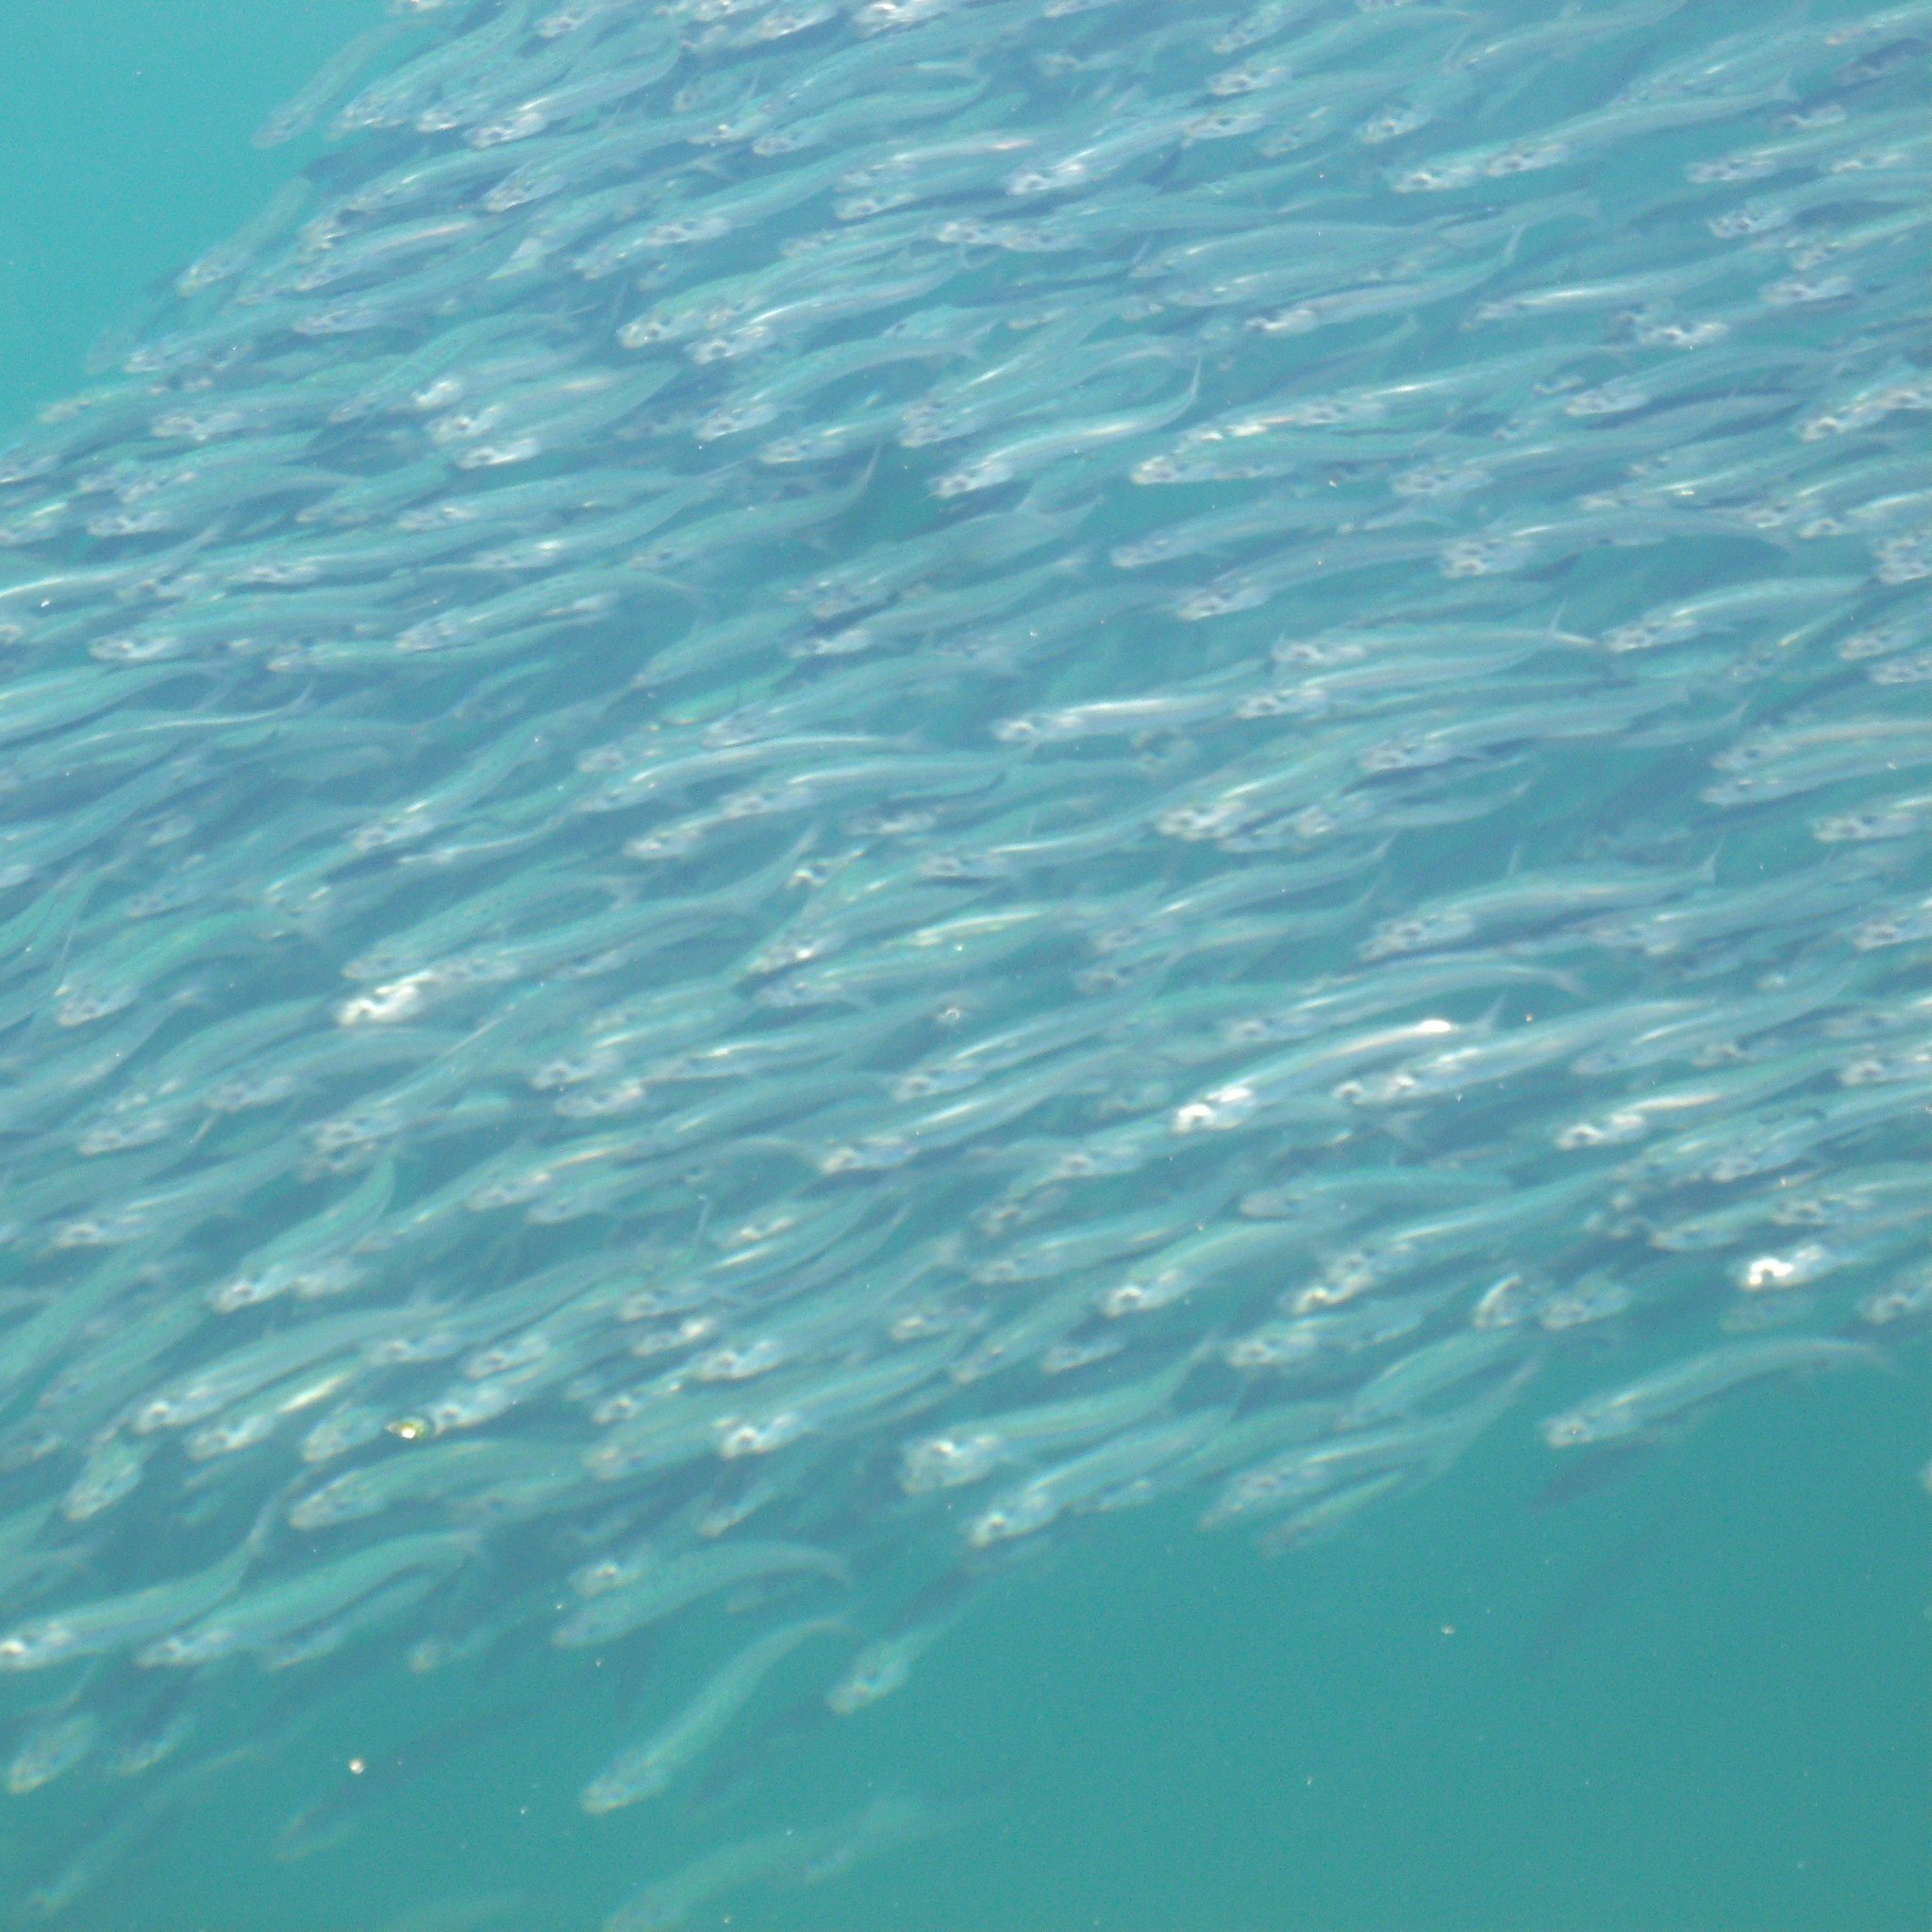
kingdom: Animalia
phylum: Chordata
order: Clupeiformes
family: Clupeidae
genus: Sardinops
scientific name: Sardinops sagax
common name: Pilchard
